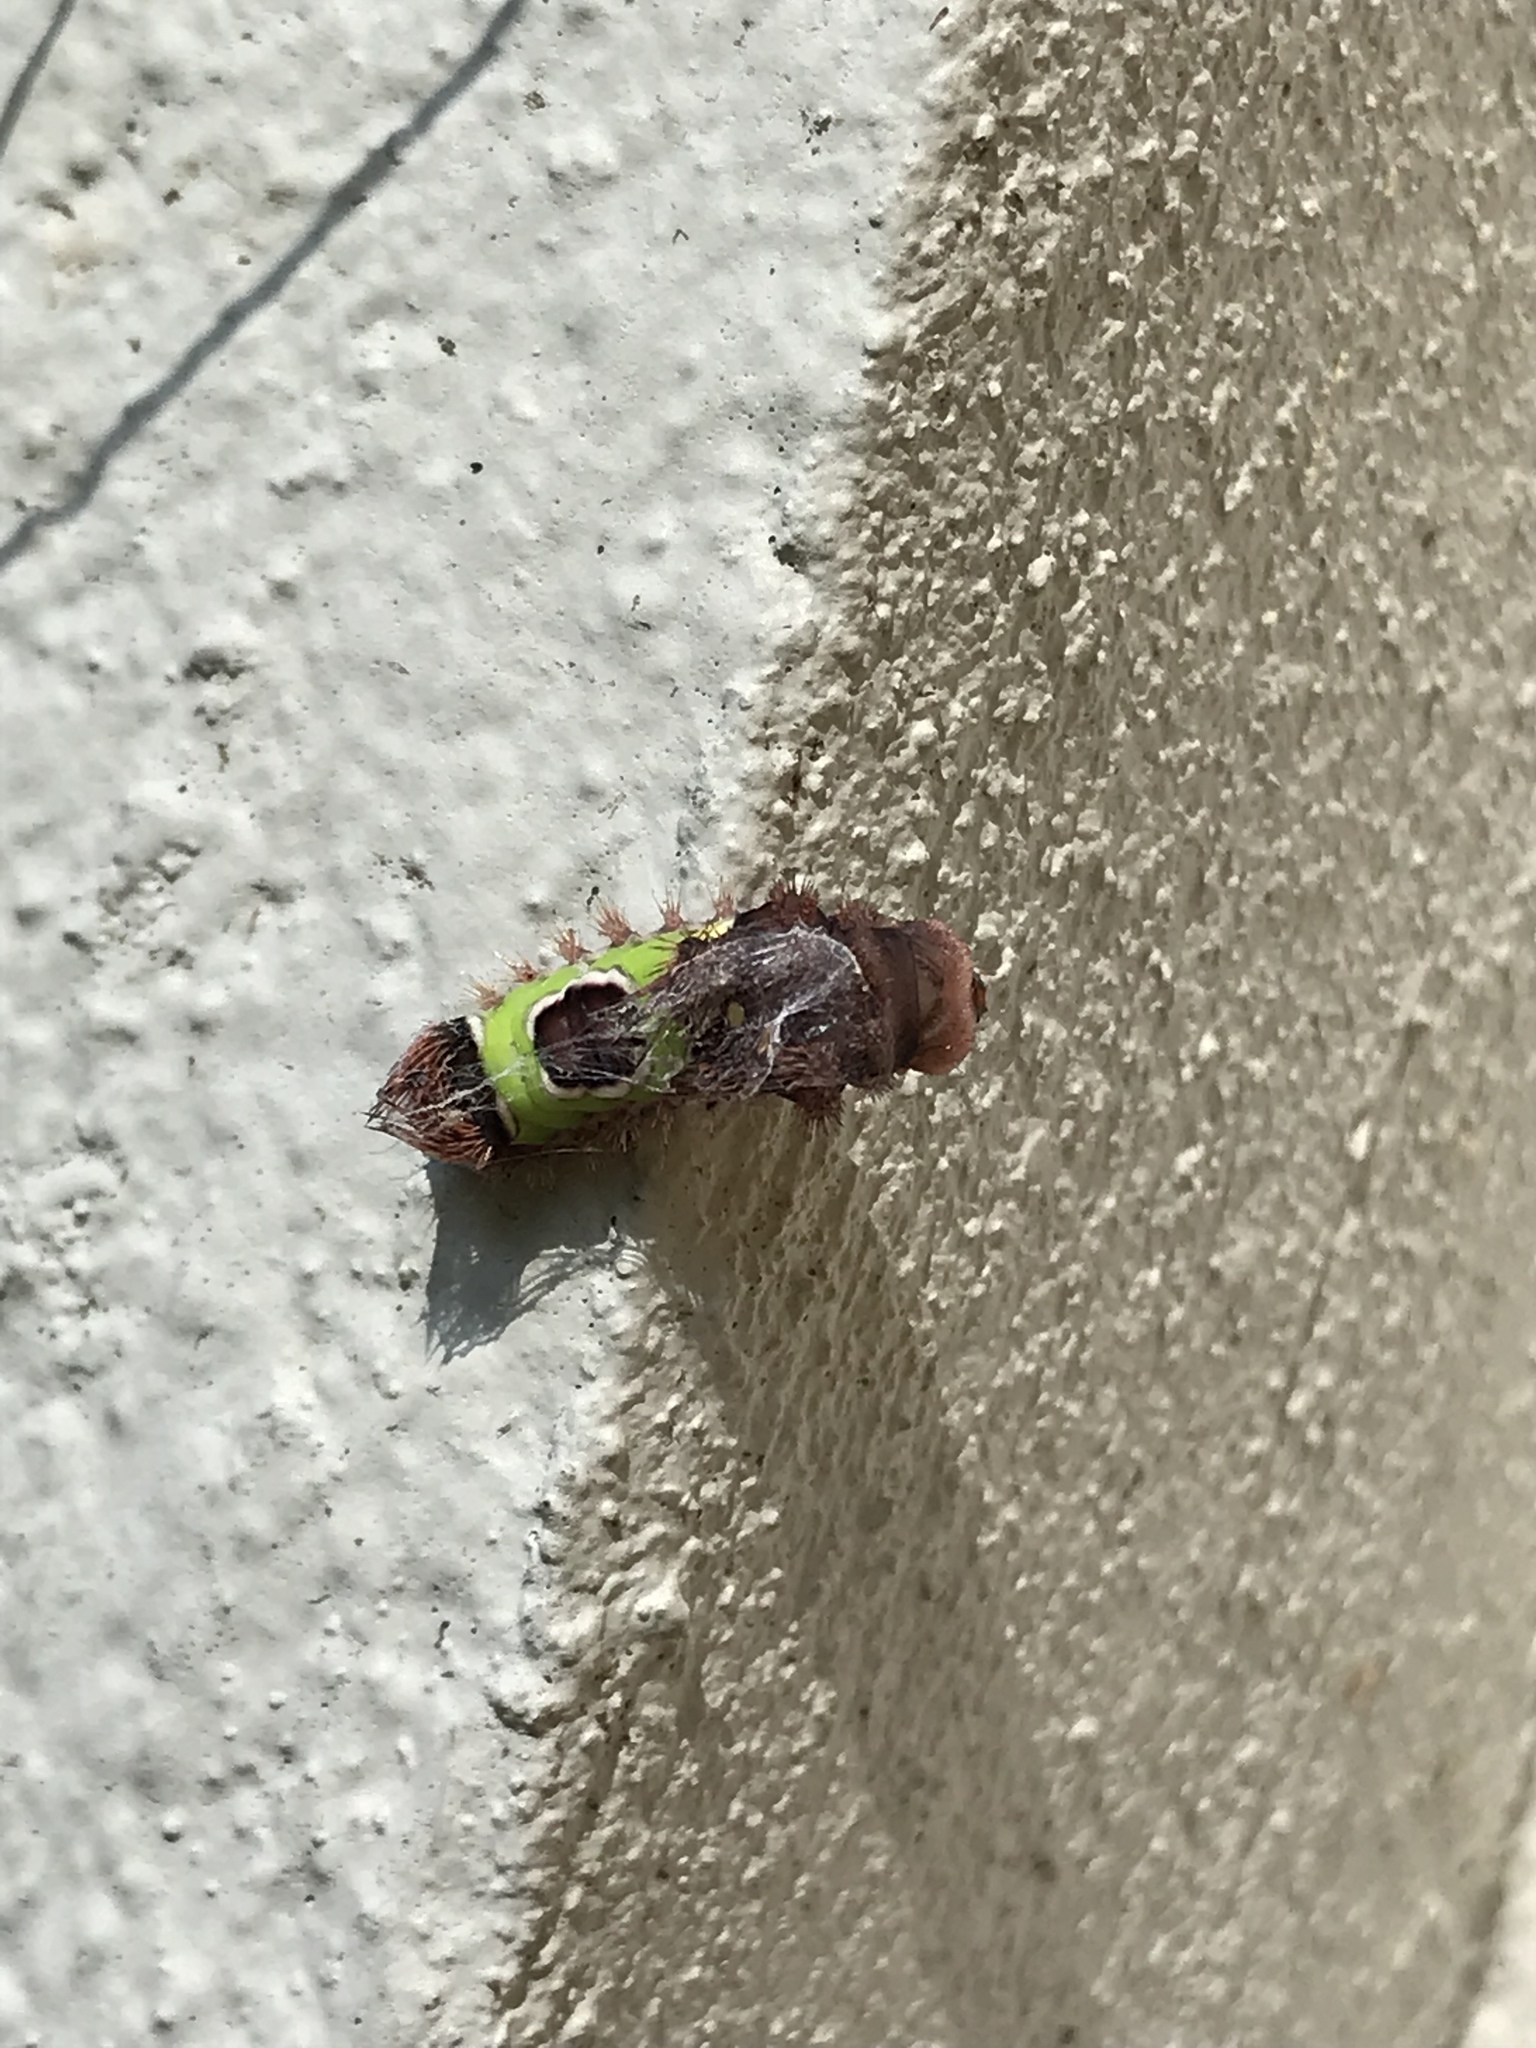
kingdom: Animalia
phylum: Arthropoda
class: Insecta
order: Lepidoptera
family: Limacodidae
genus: Acharia
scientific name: Acharia stimulea
